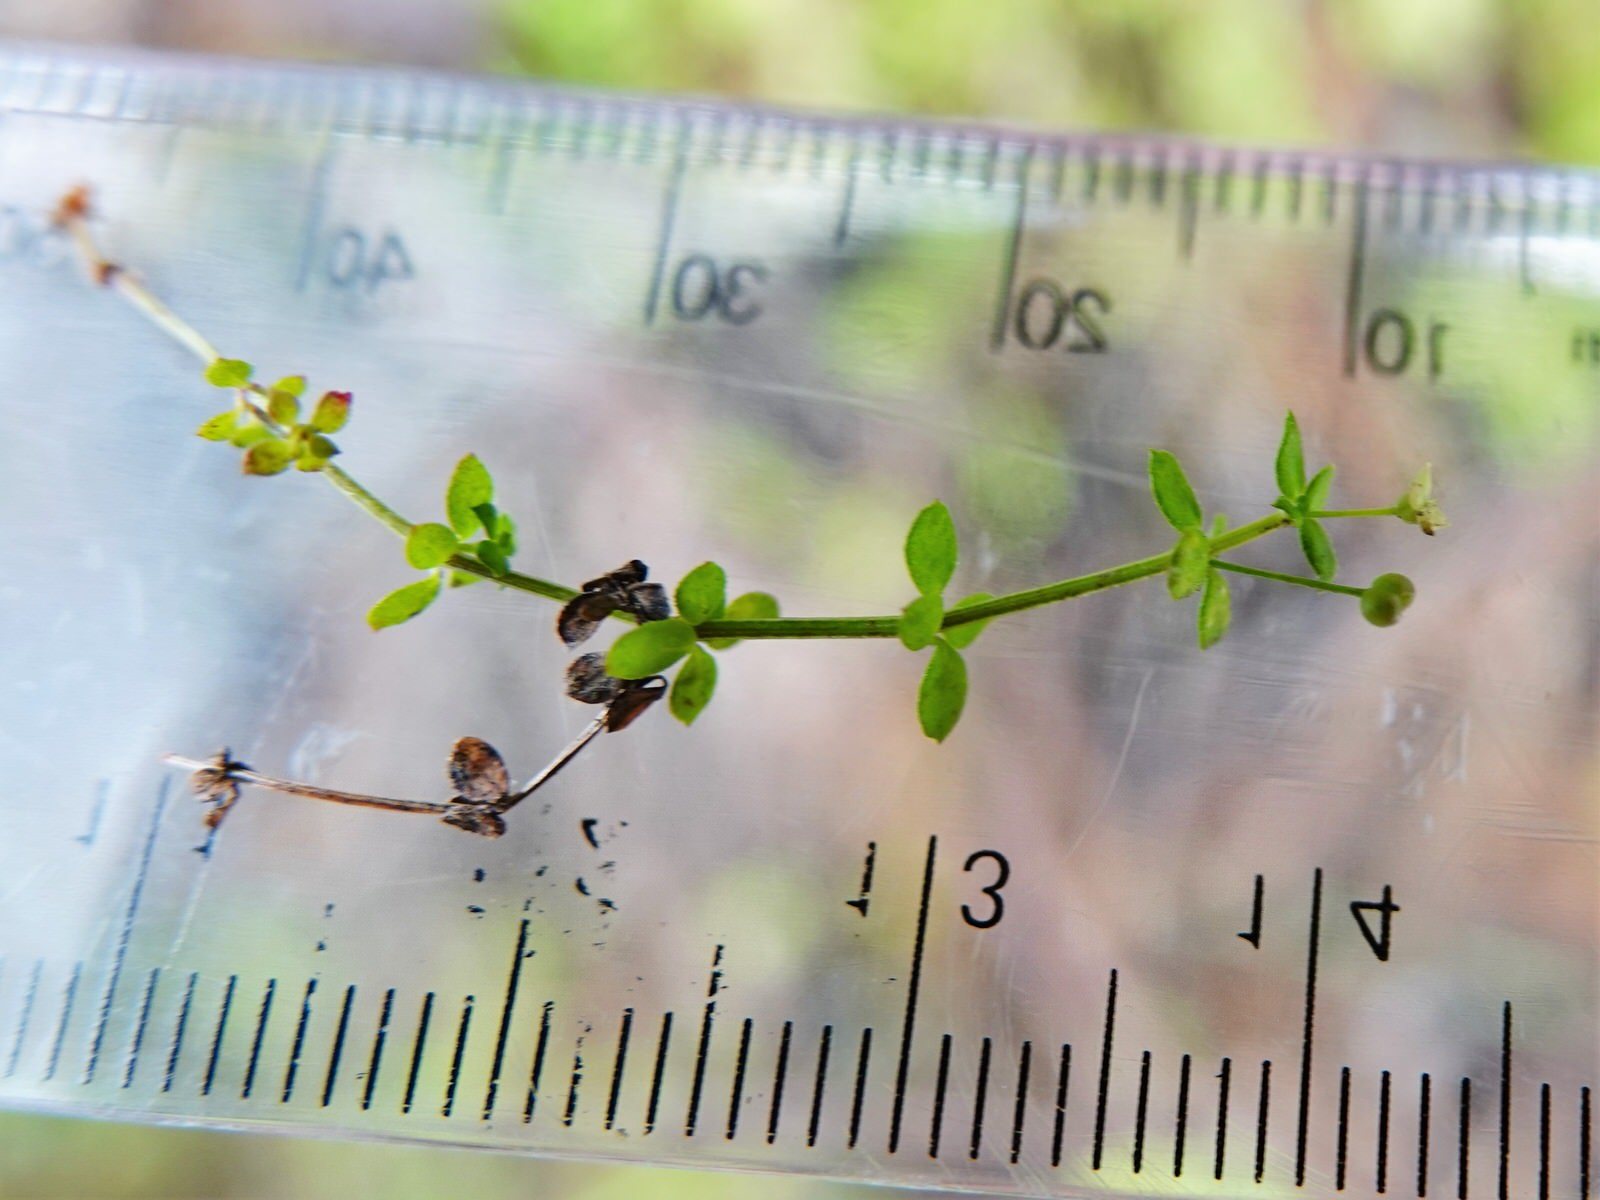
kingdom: Plantae
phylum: Tracheophyta
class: Magnoliopsida
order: Gentianales
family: Rubiaceae
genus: Galium
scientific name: Galium propinquum
